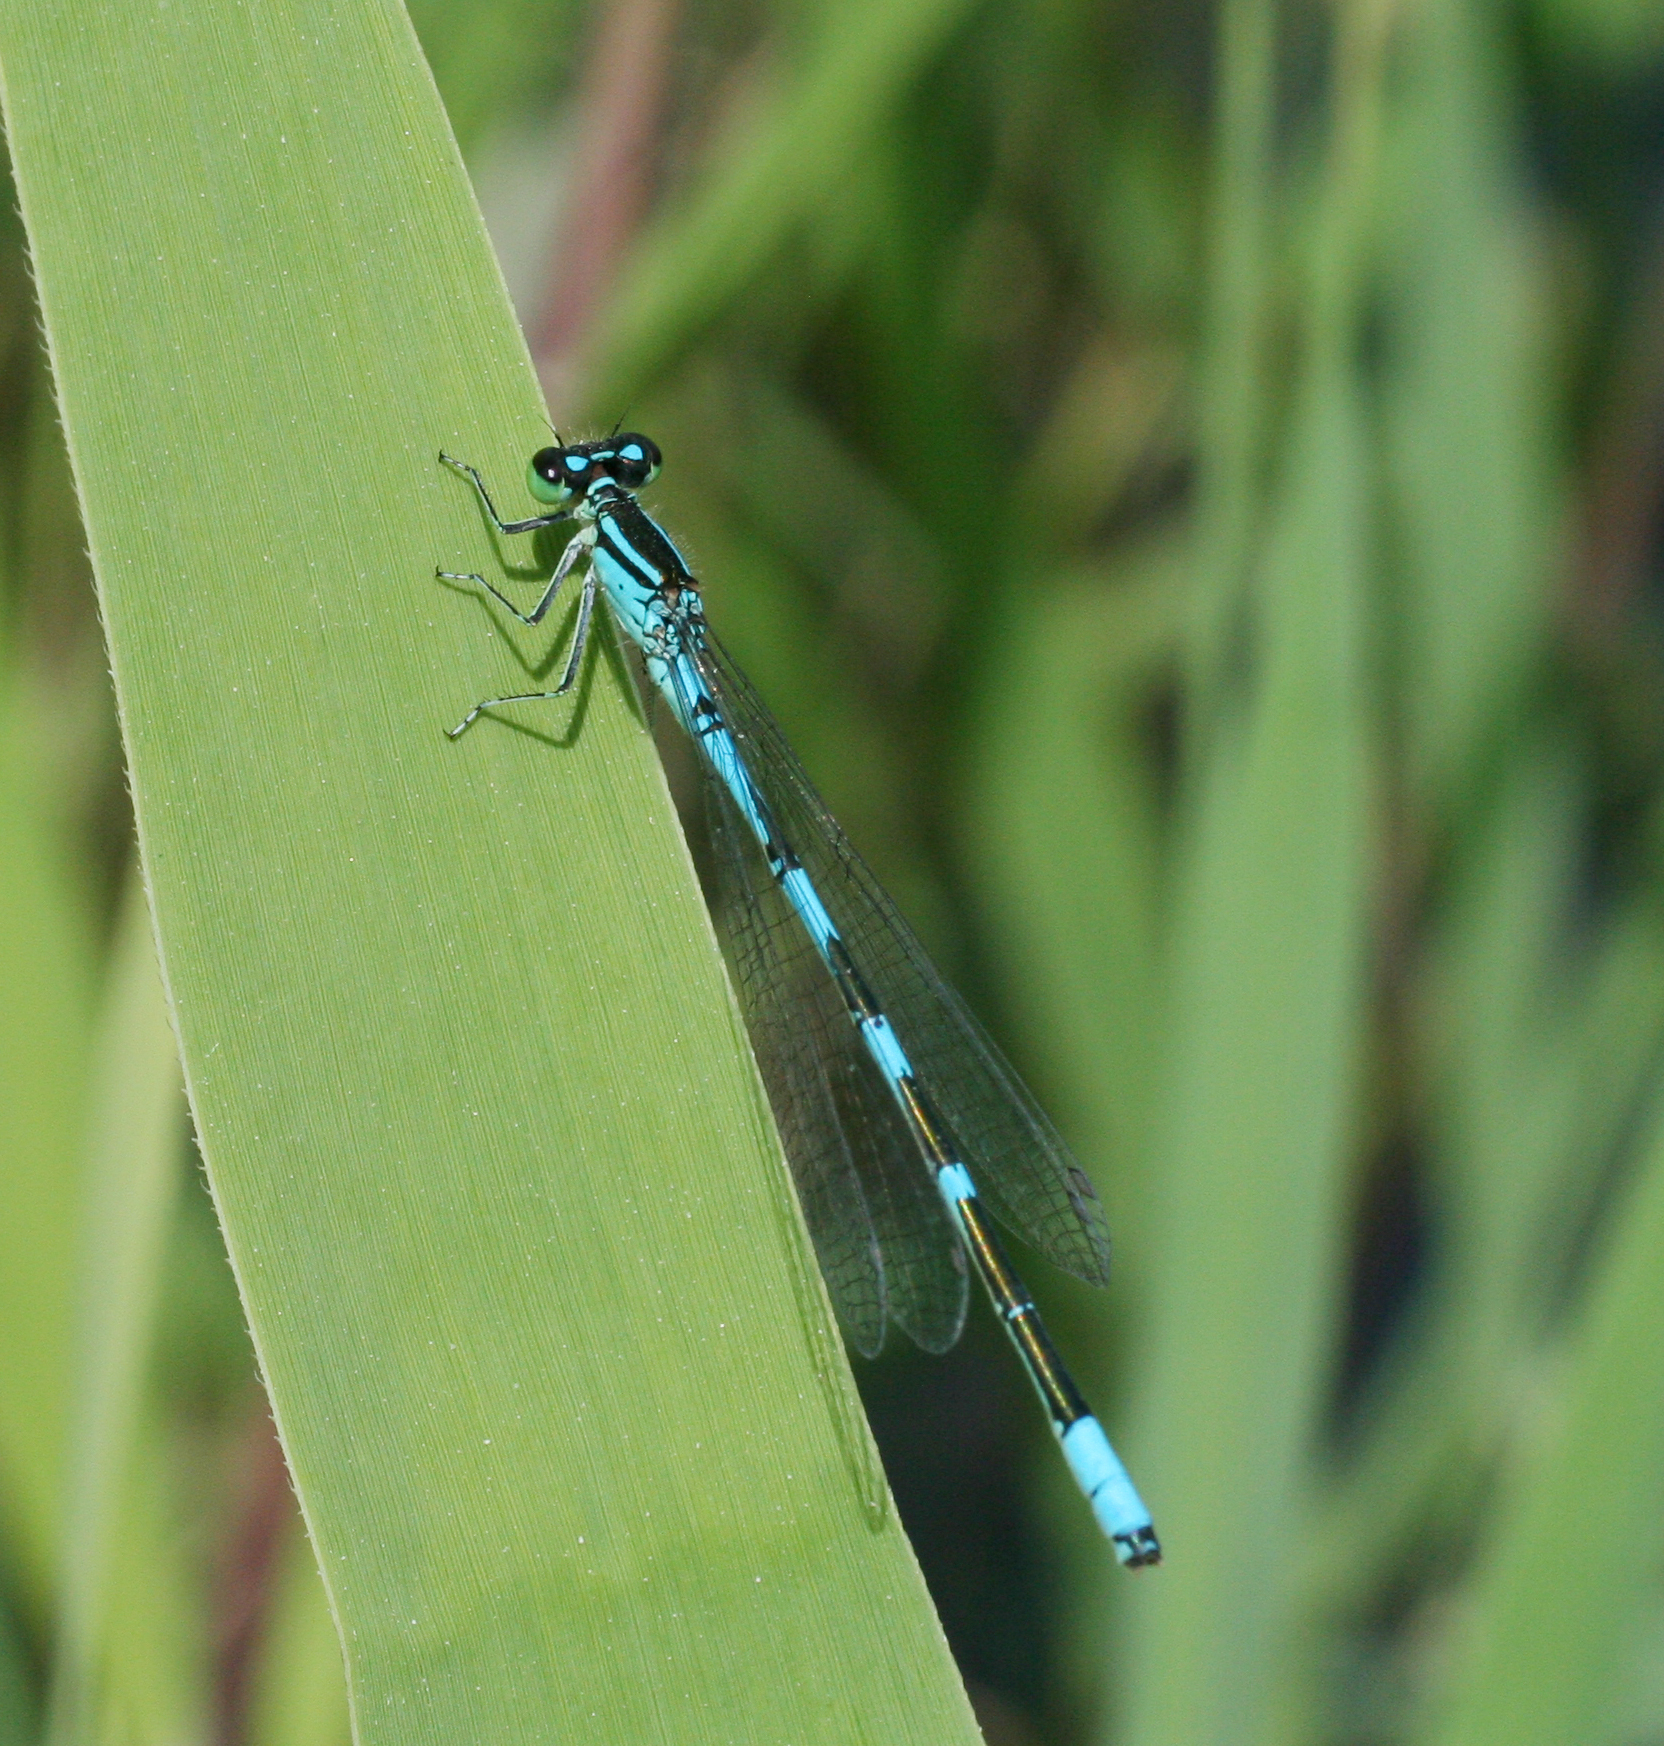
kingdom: Animalia
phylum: Arthropoda
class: Insecta
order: Odonata
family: Coenagrionidae
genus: Coenagrion
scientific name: Coenagrion lanceolatum
